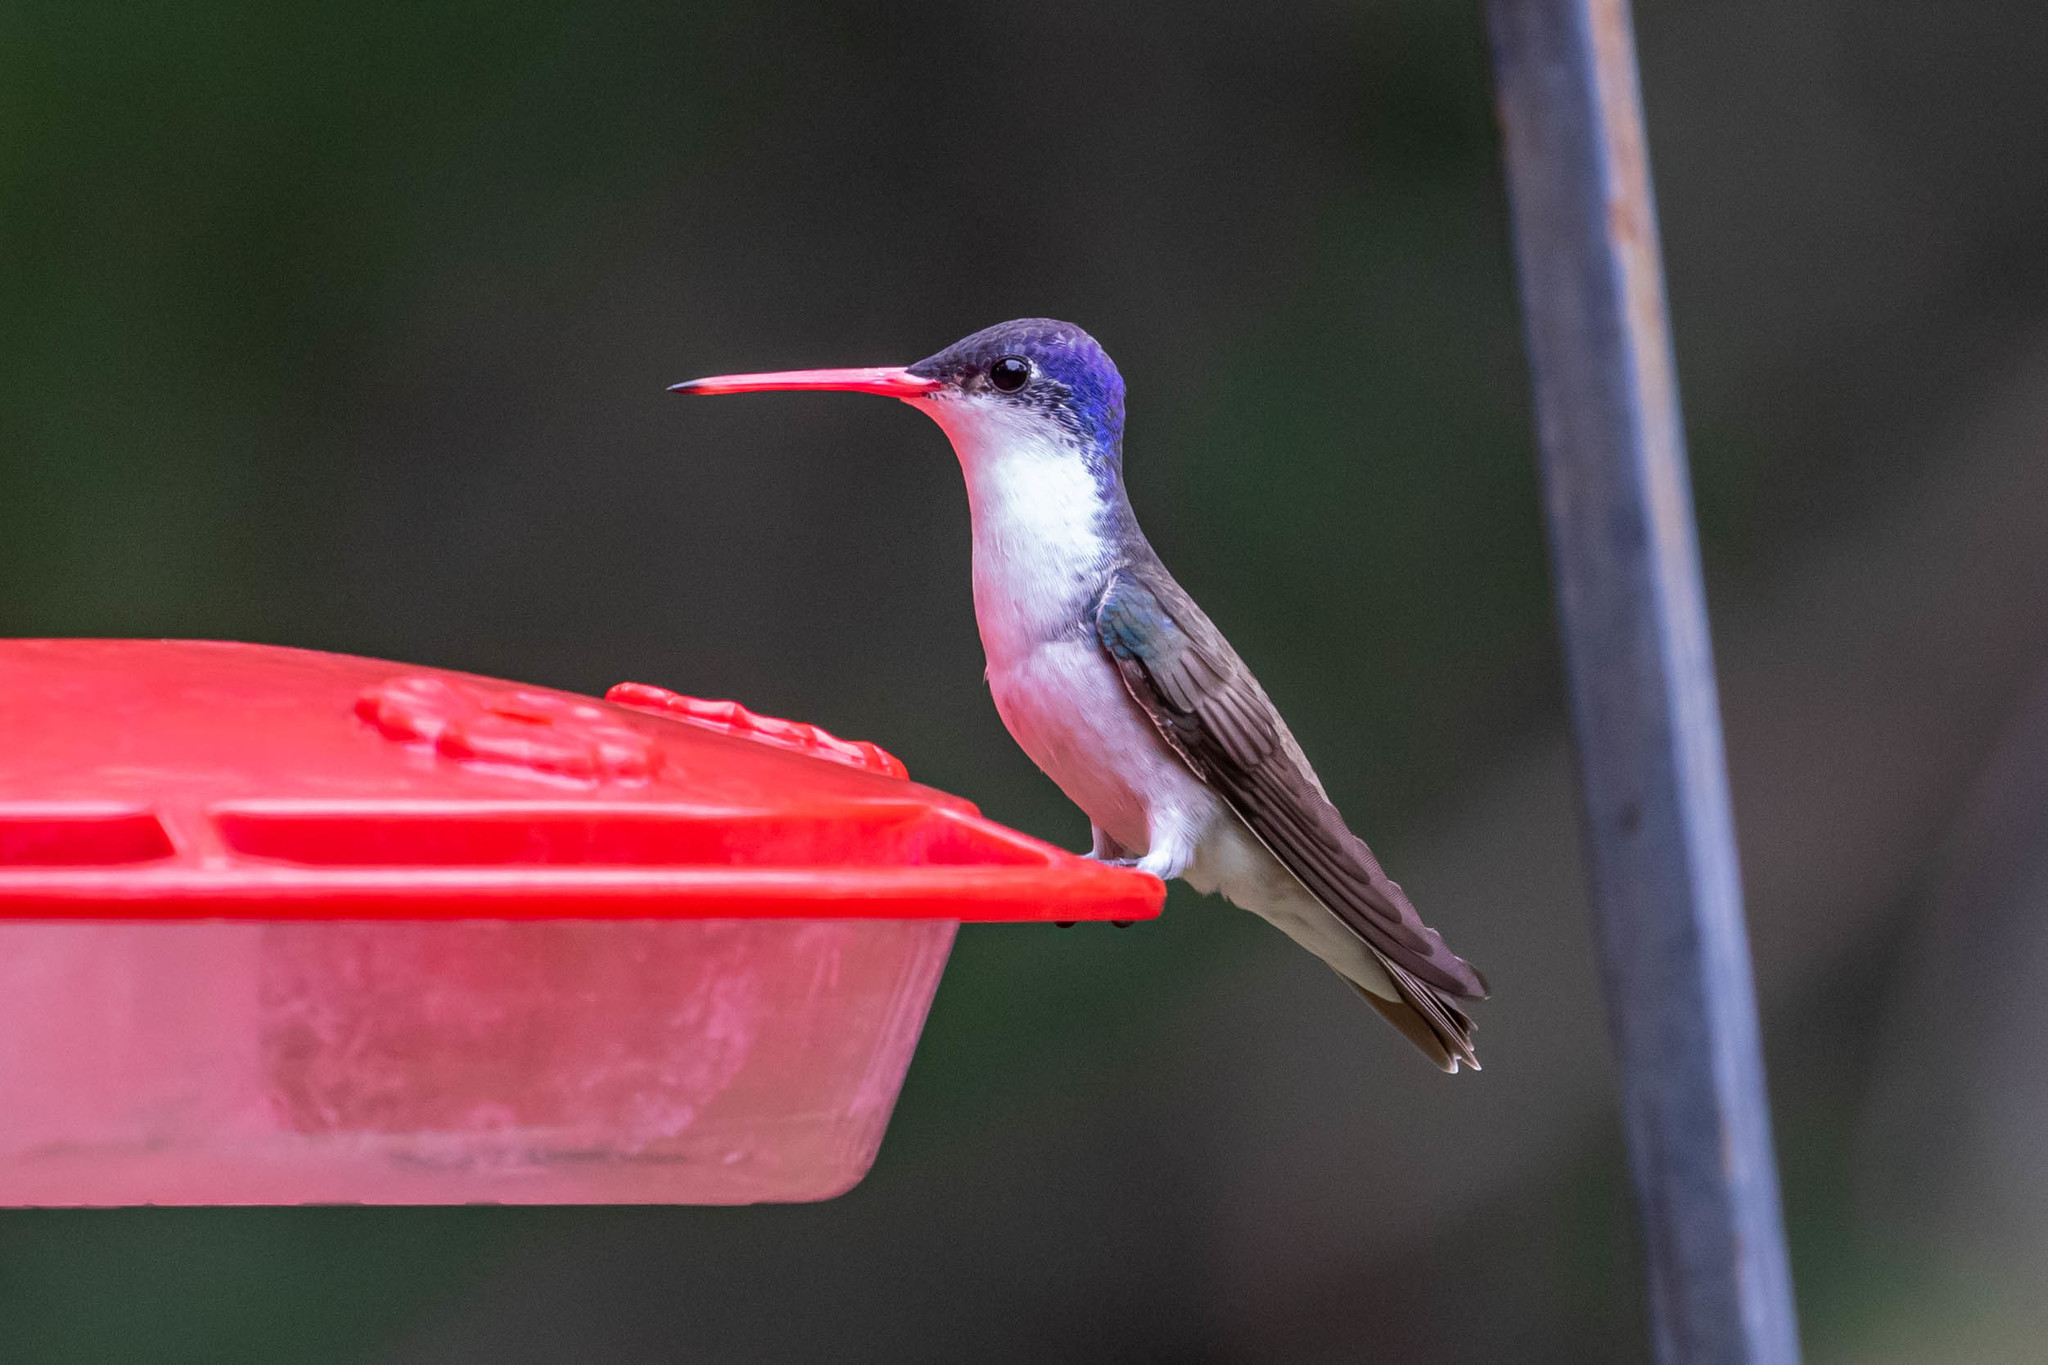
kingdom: Animalia
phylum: Chordata
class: Aves
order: Apodiformes
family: Trochilidae
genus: Leucolia
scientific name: Leucolia violiceps
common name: Violet-crowned hummingbird
